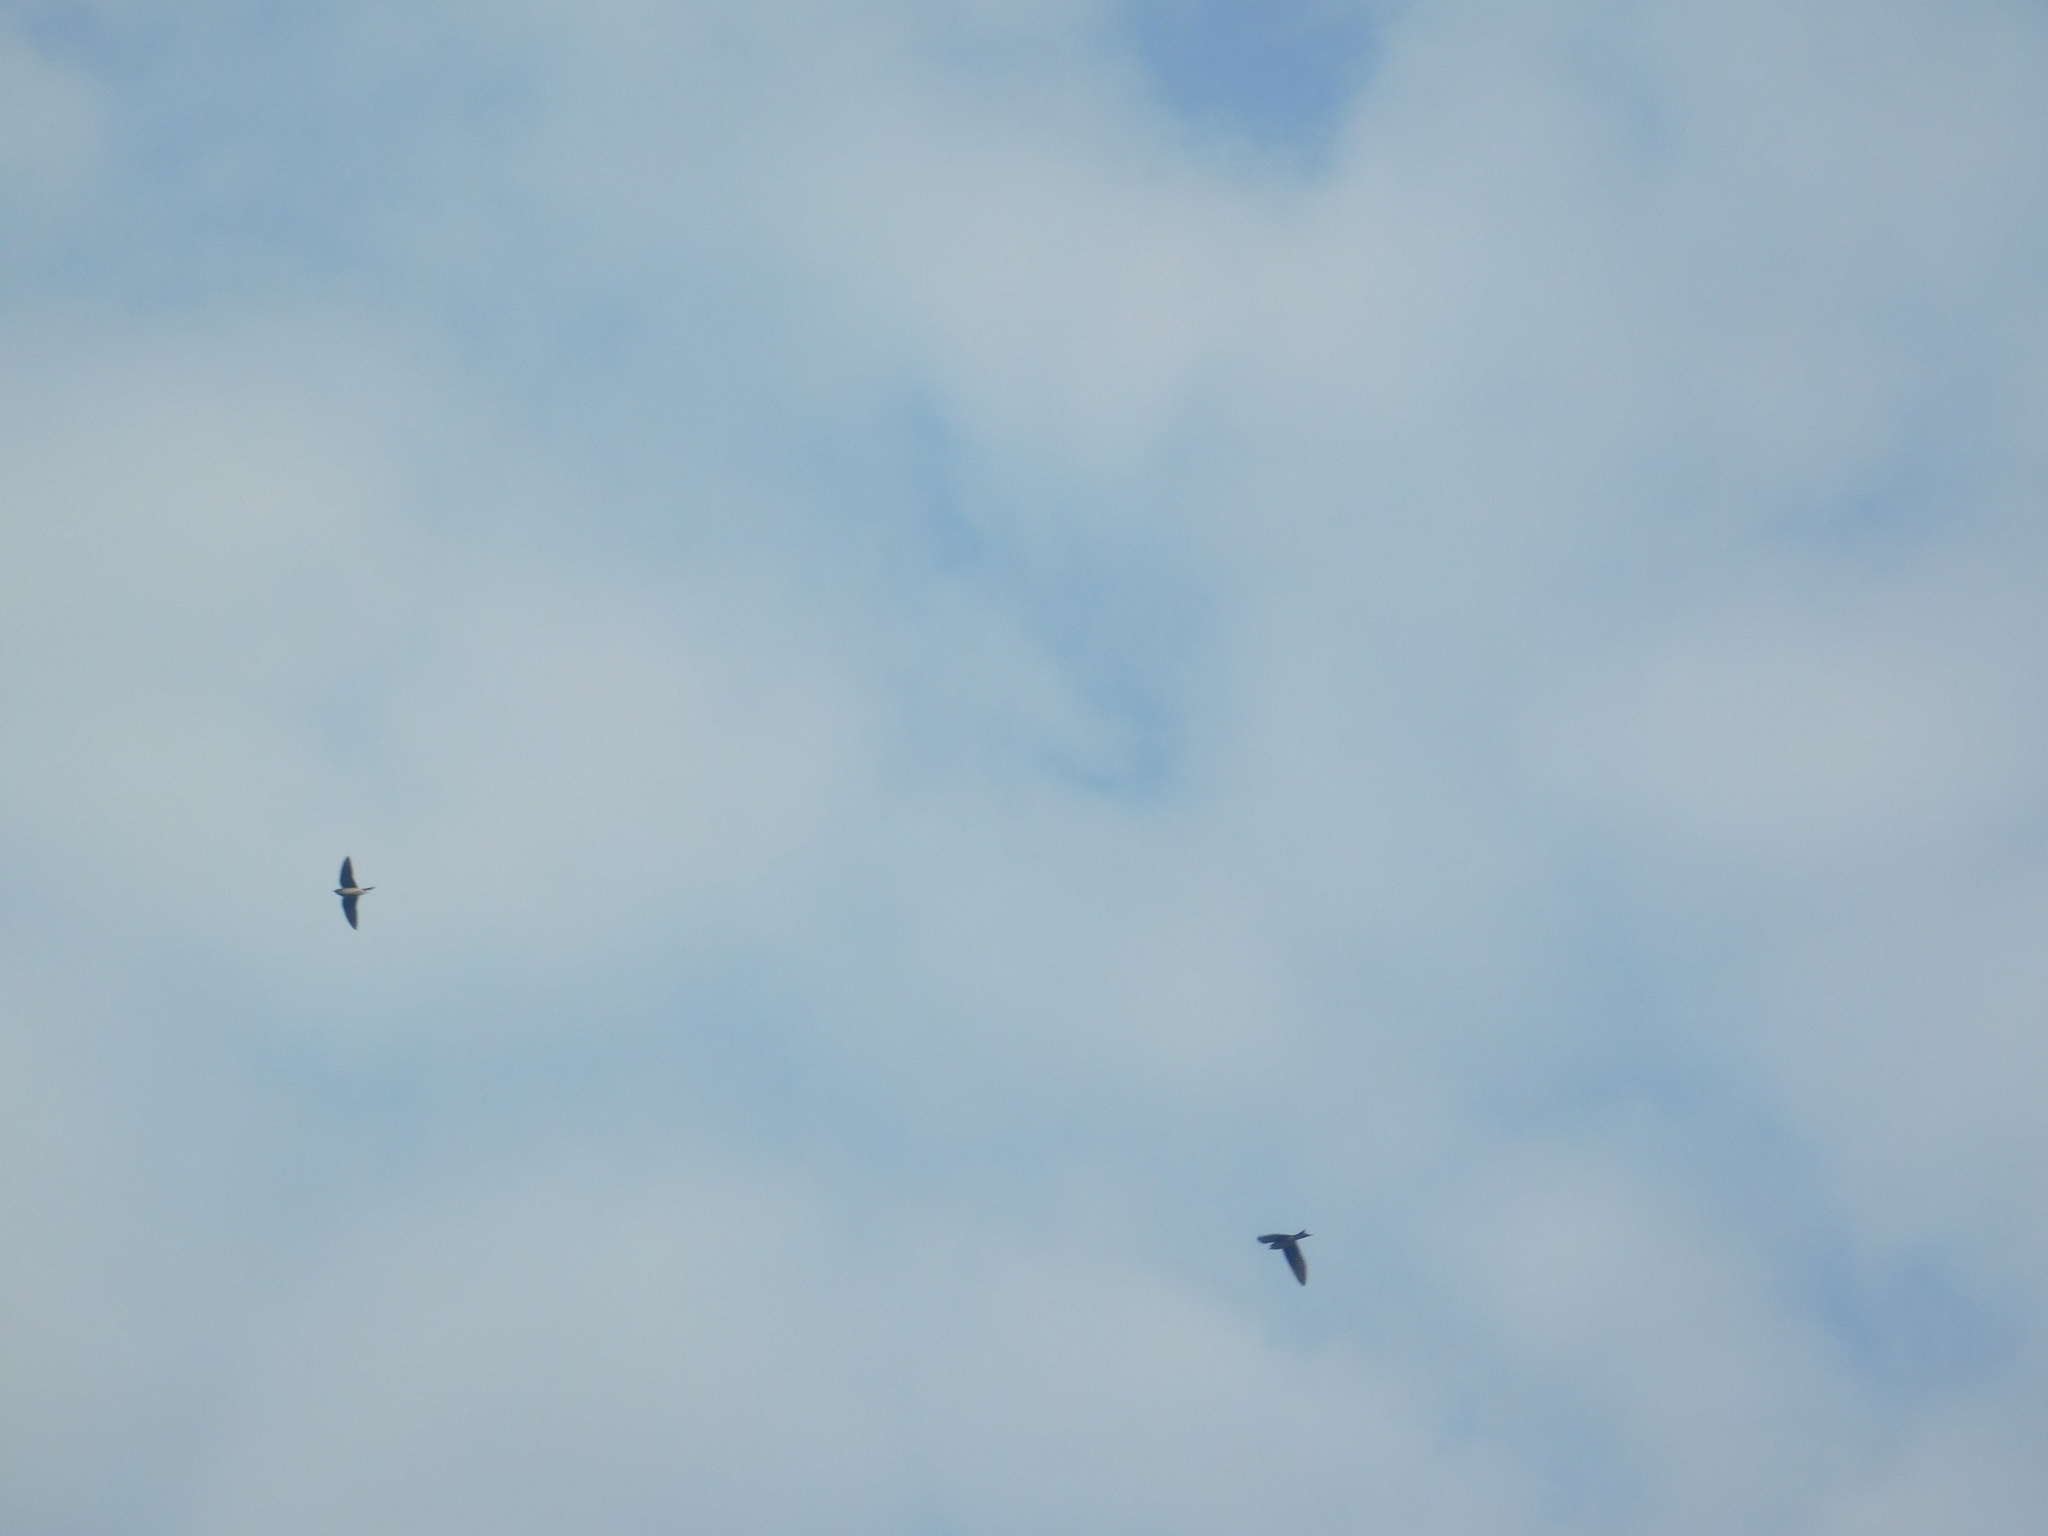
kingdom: Animalia
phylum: Chordata
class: Aves
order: Passeriformes
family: Hirundinidae
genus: Progne
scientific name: Progne chalybea
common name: Grey-breasted martin
